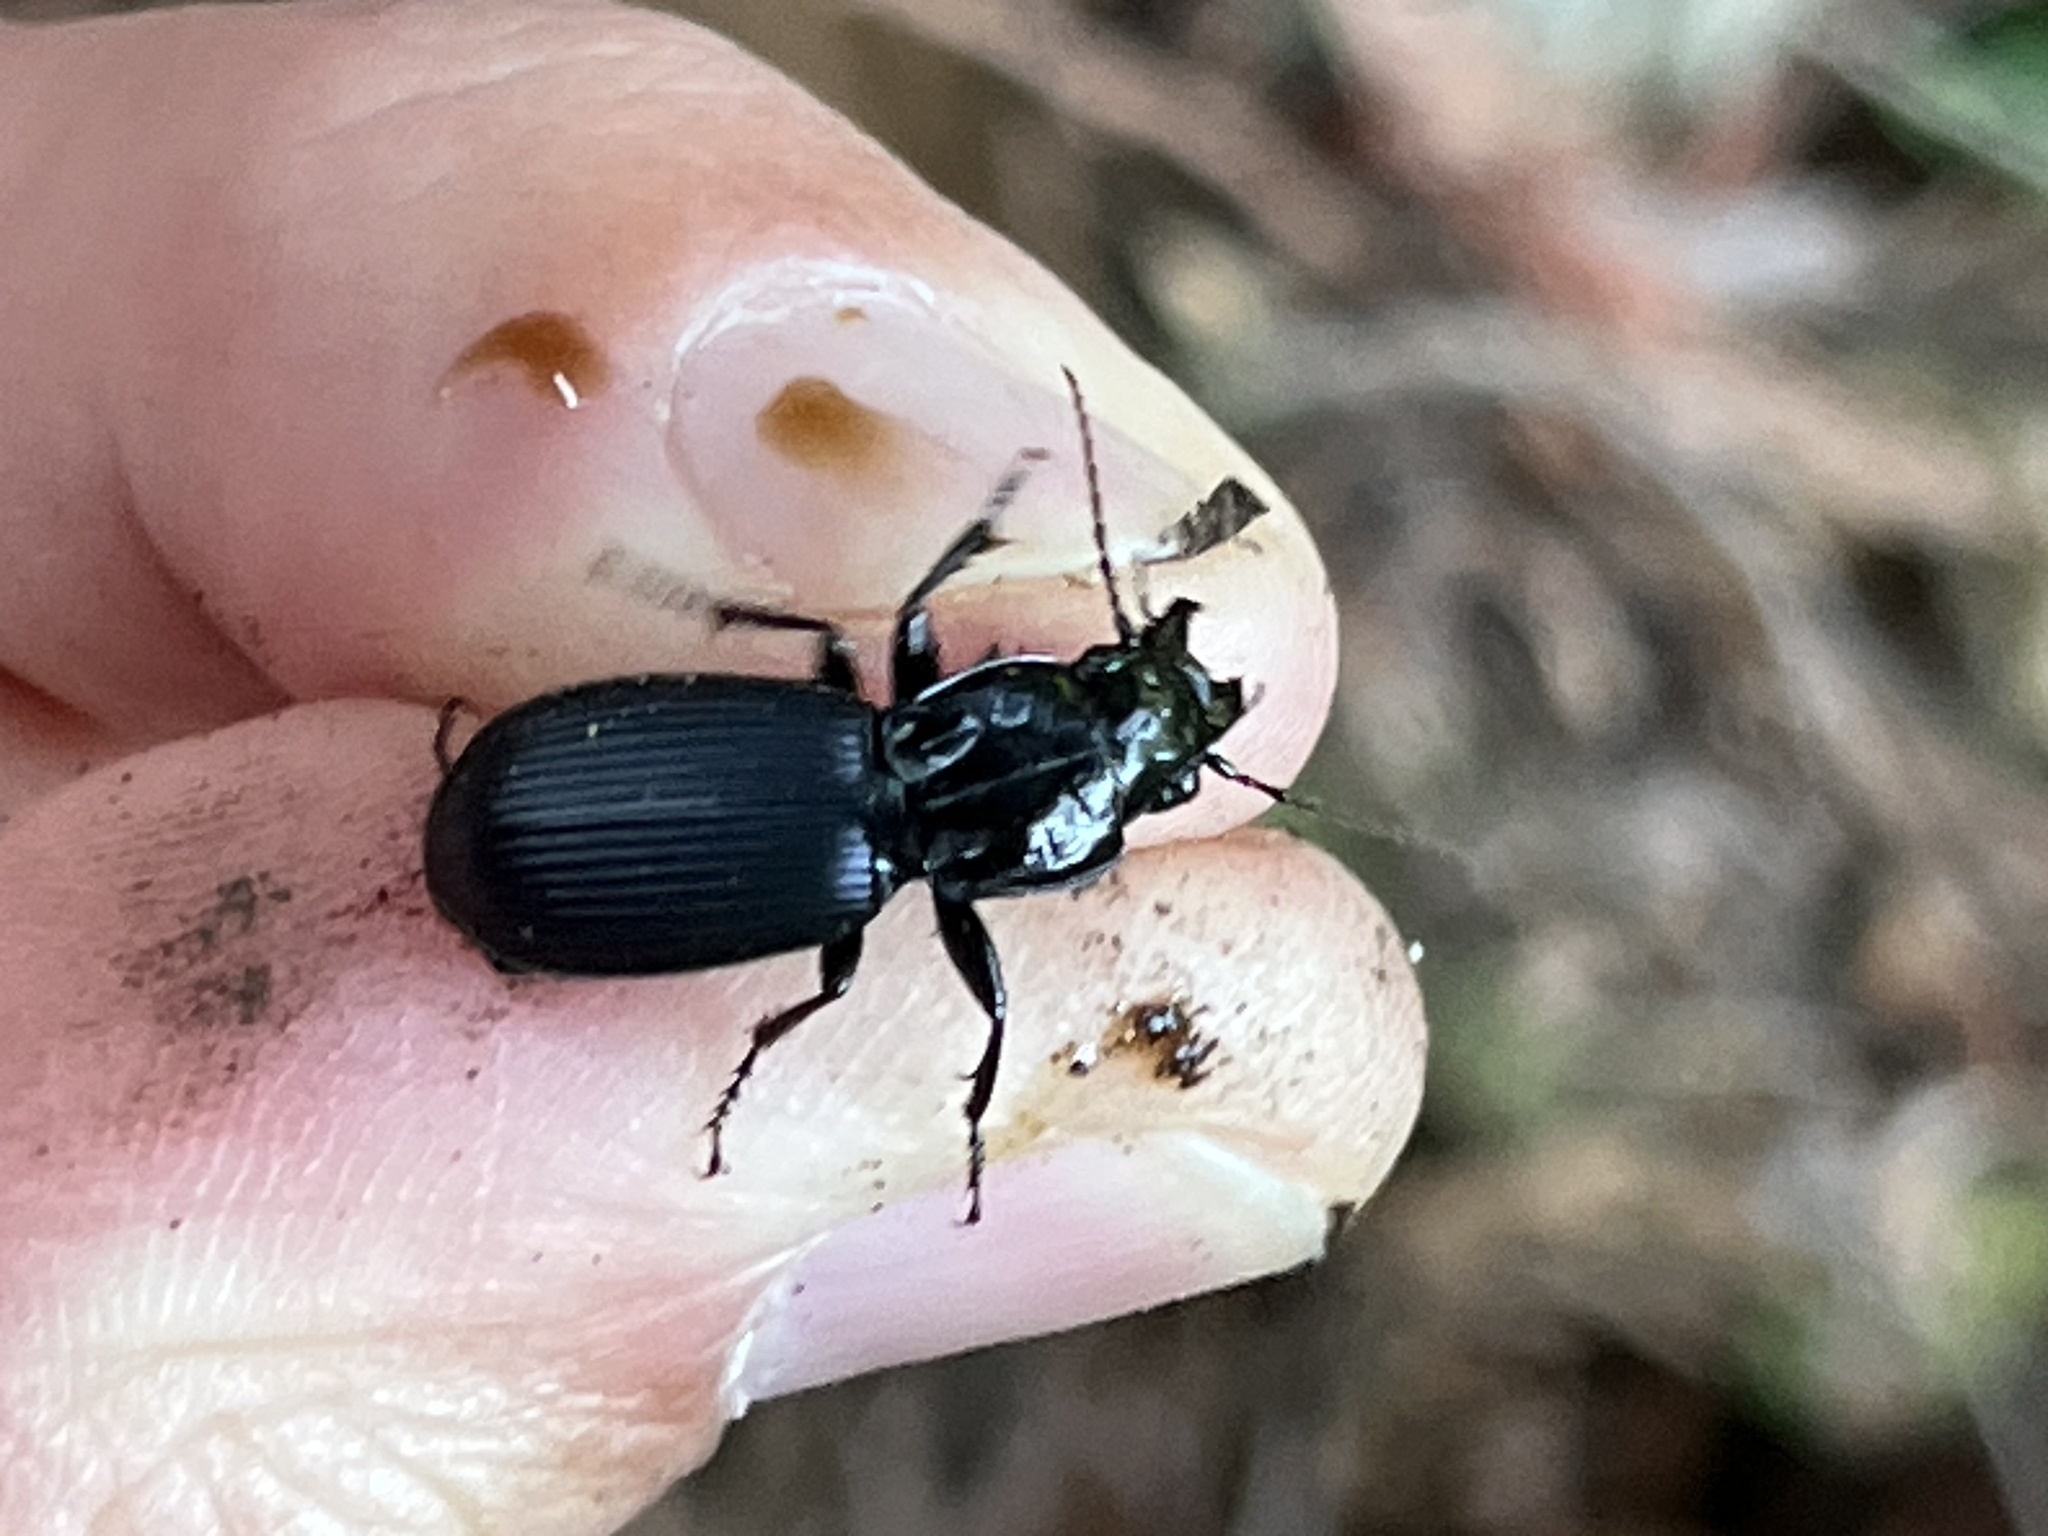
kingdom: Animalia
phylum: Arthropoda
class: Insecta
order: Coleoptera
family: Carabidae
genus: Pterostichus
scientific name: Pterostichus crenicollis
